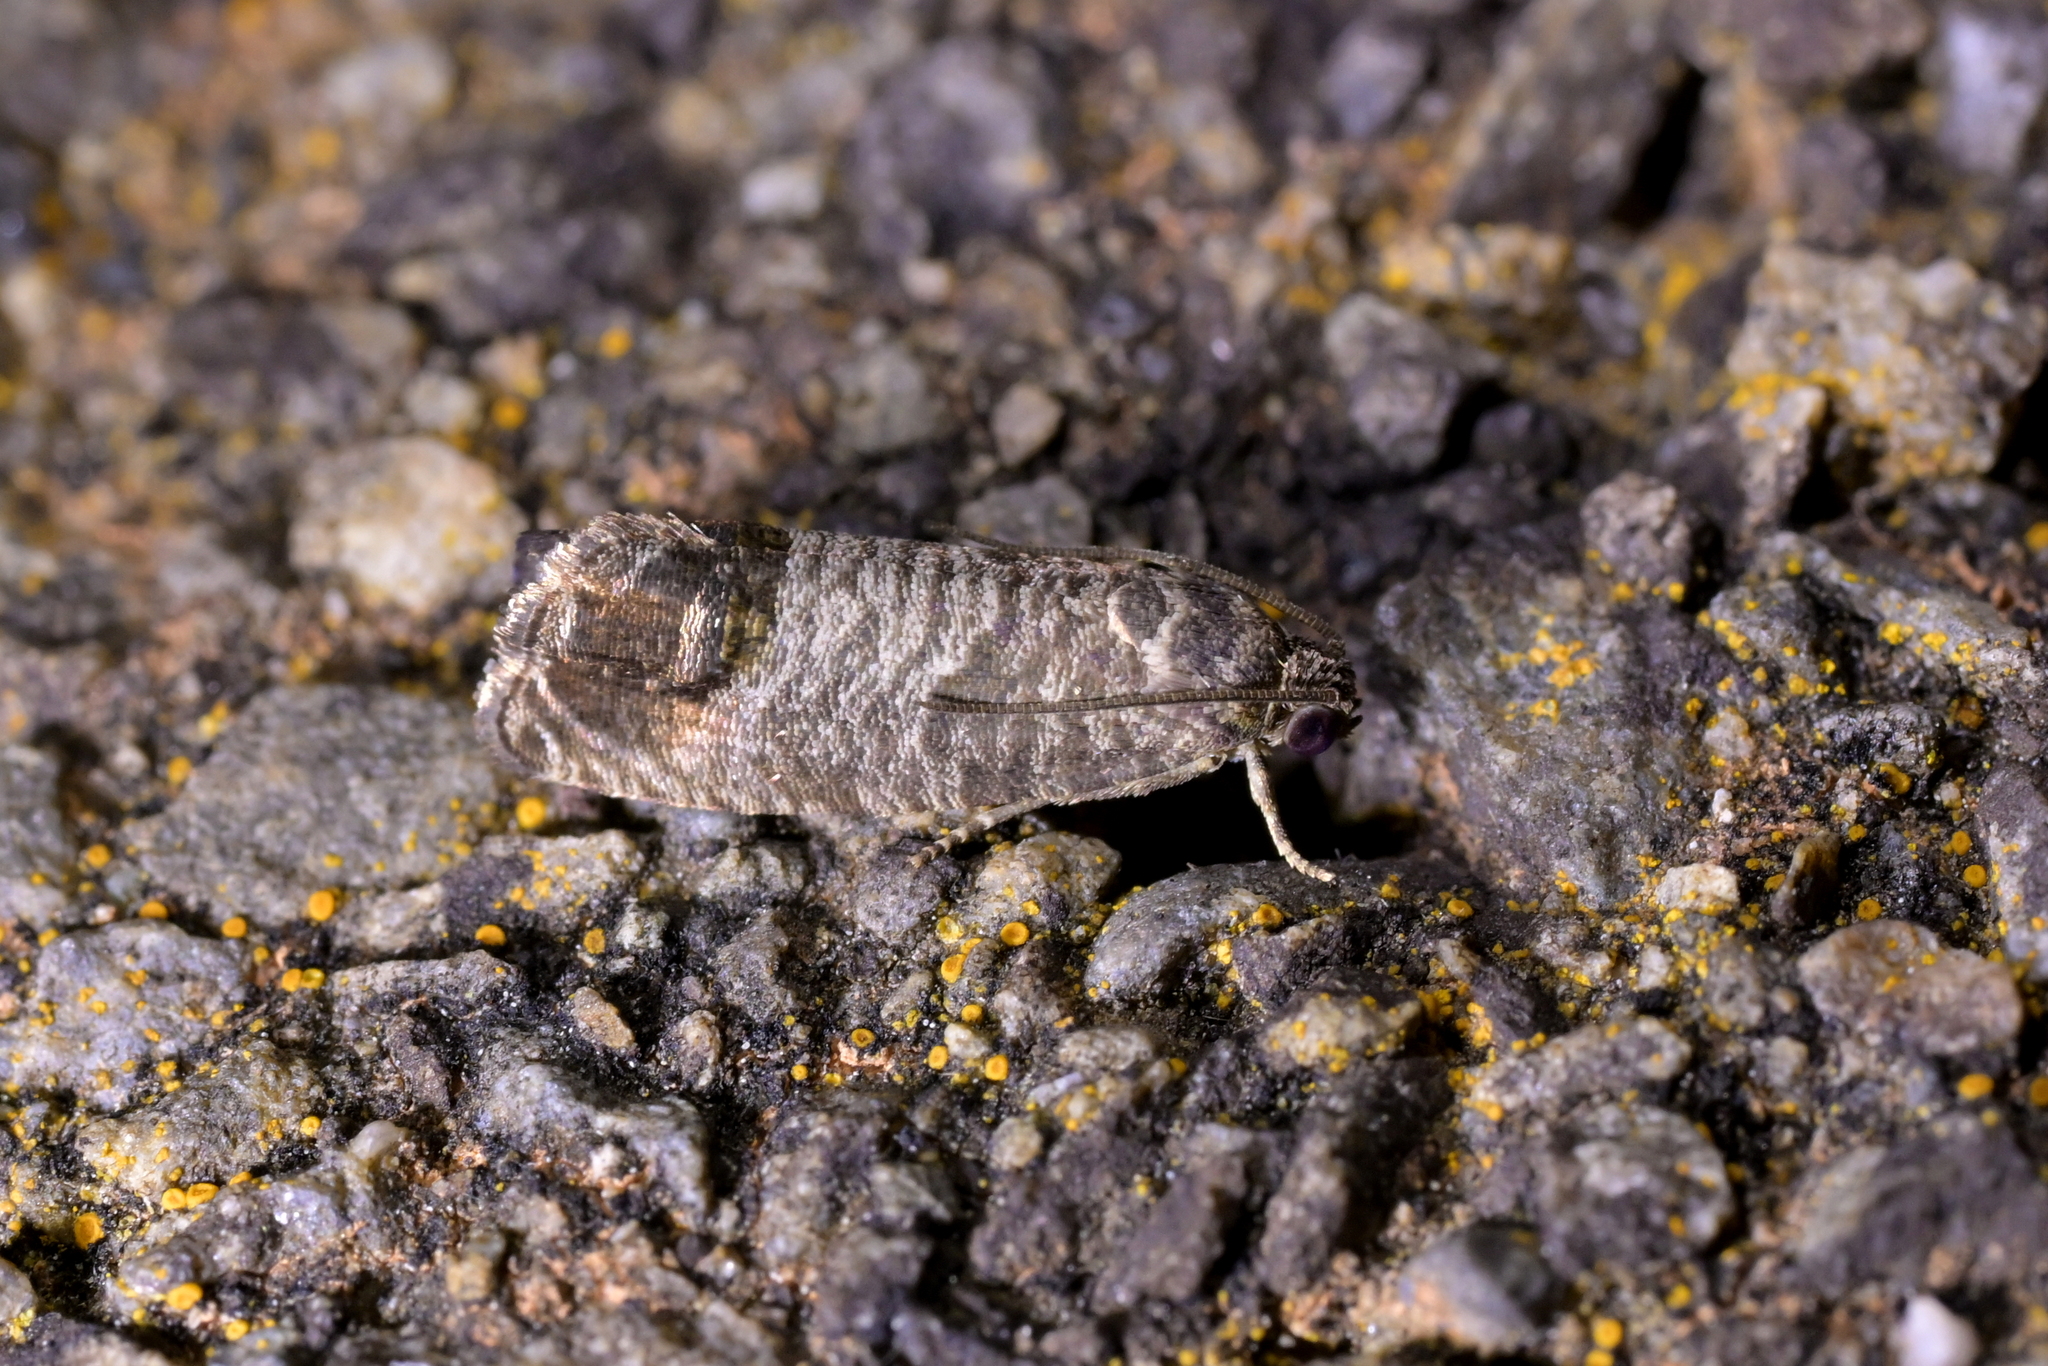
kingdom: Animalia
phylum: Arthropoda
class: Insecta
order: Lepidoptera
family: Tortricidae
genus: Cydia
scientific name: Cydia pomonella
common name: Codling moth
